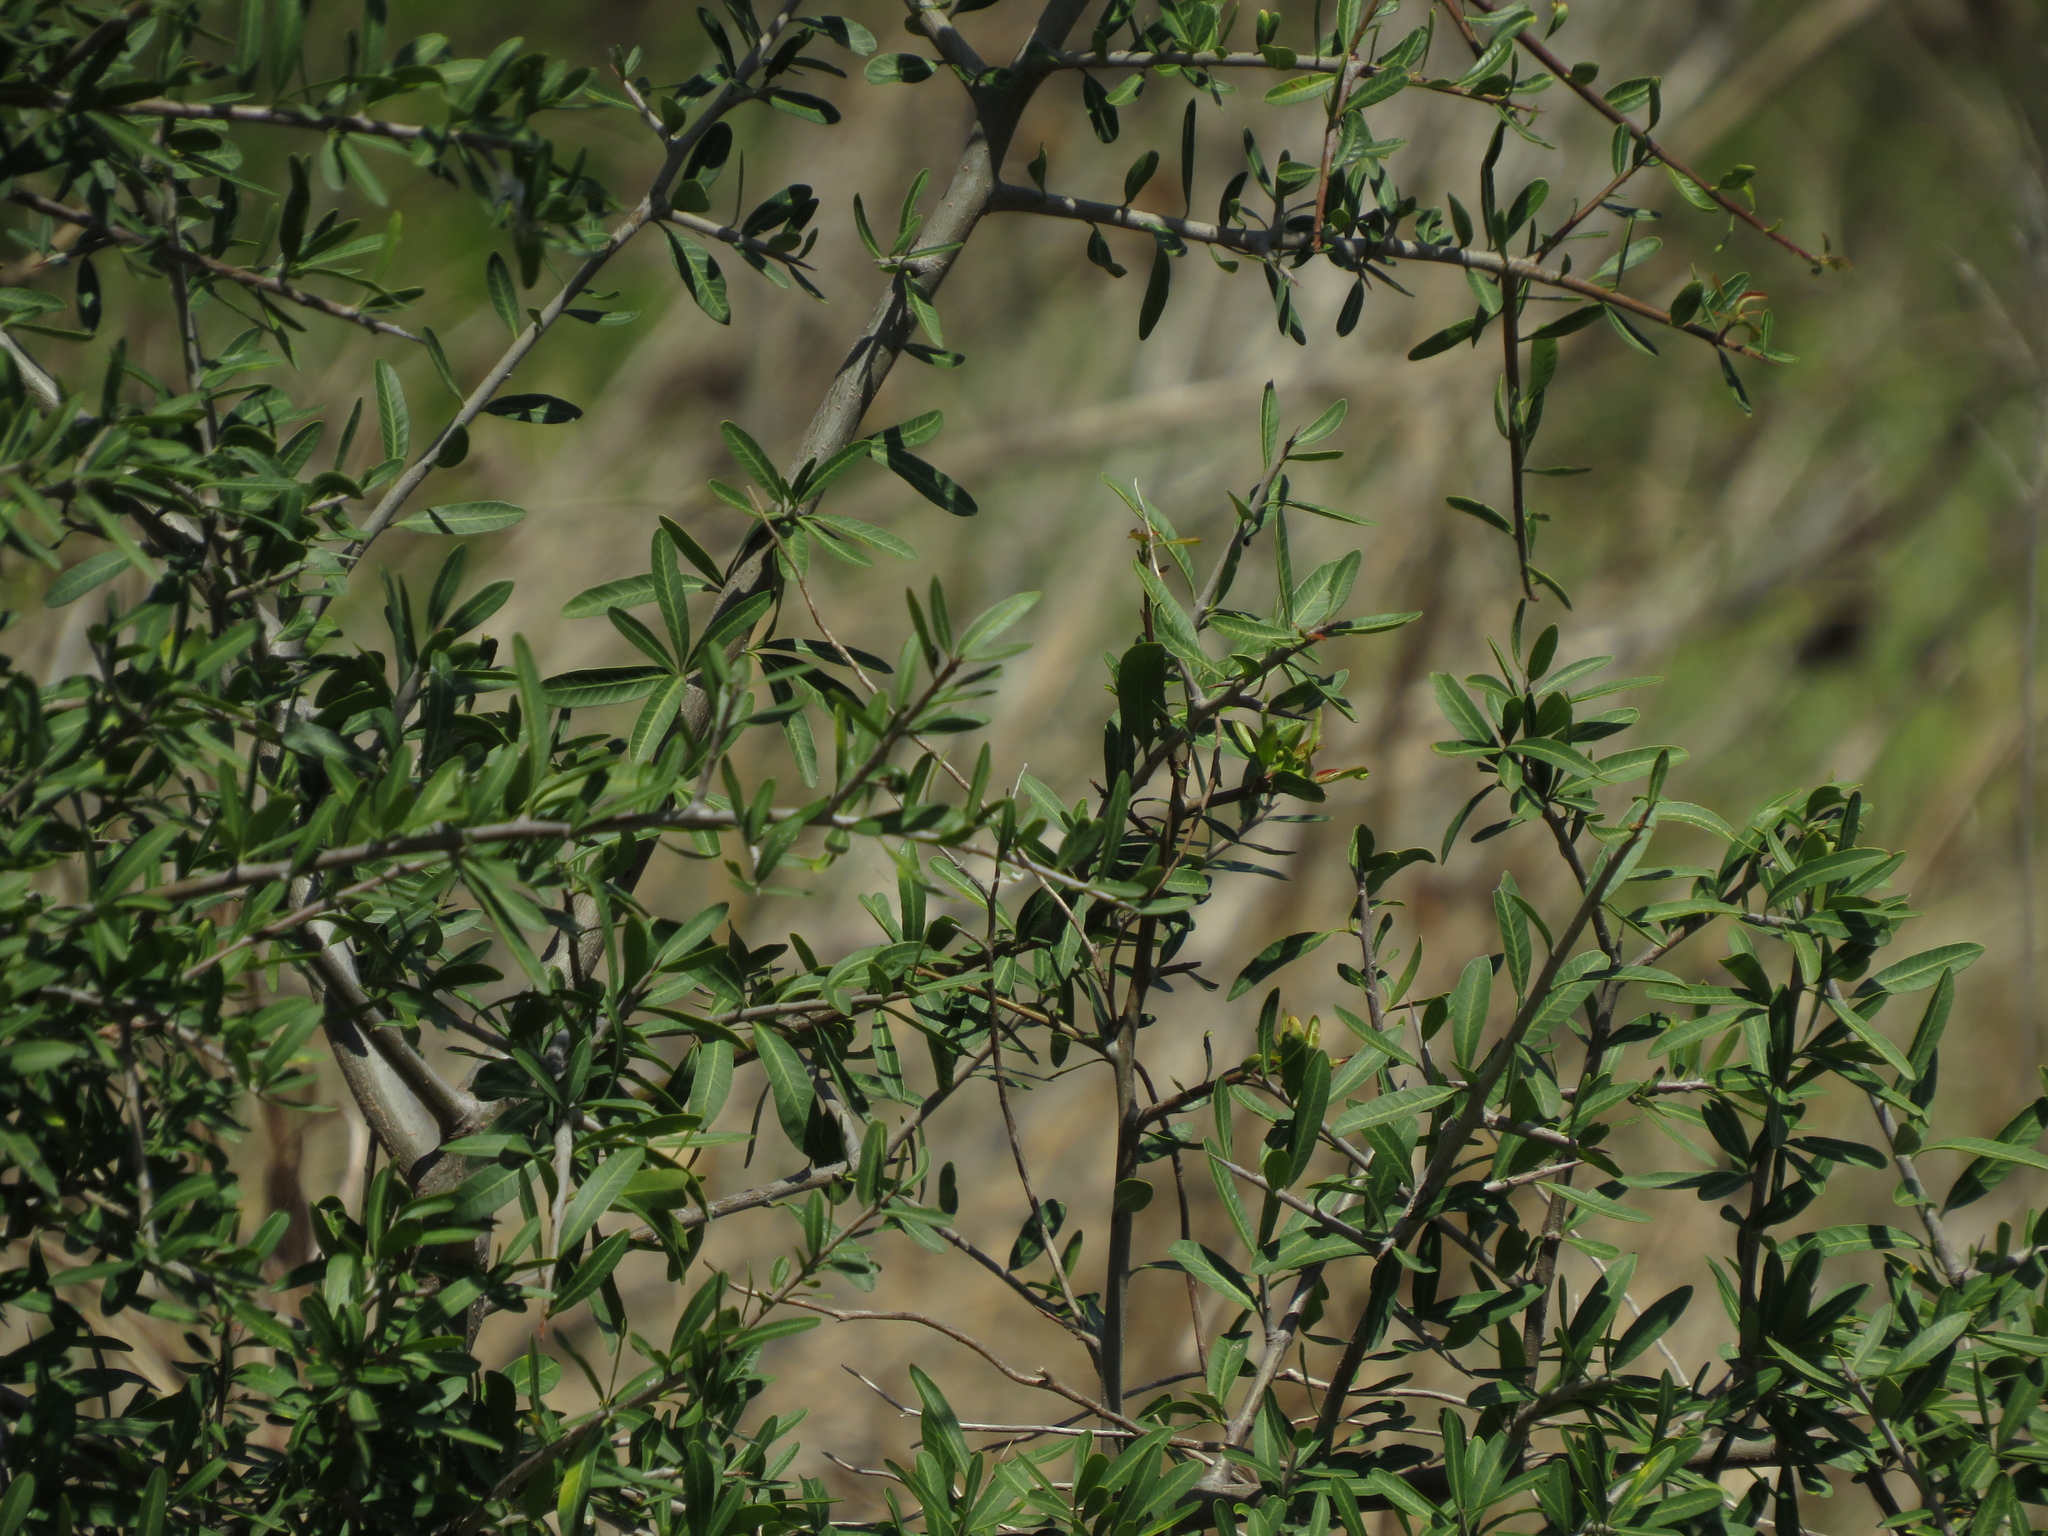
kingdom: Plantae
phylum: Tracheophyta
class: Magnoliopsida
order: Sapindales
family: Anacardiaceae
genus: Schinus
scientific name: Schinus longifolia
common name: Longleaf peppertree
